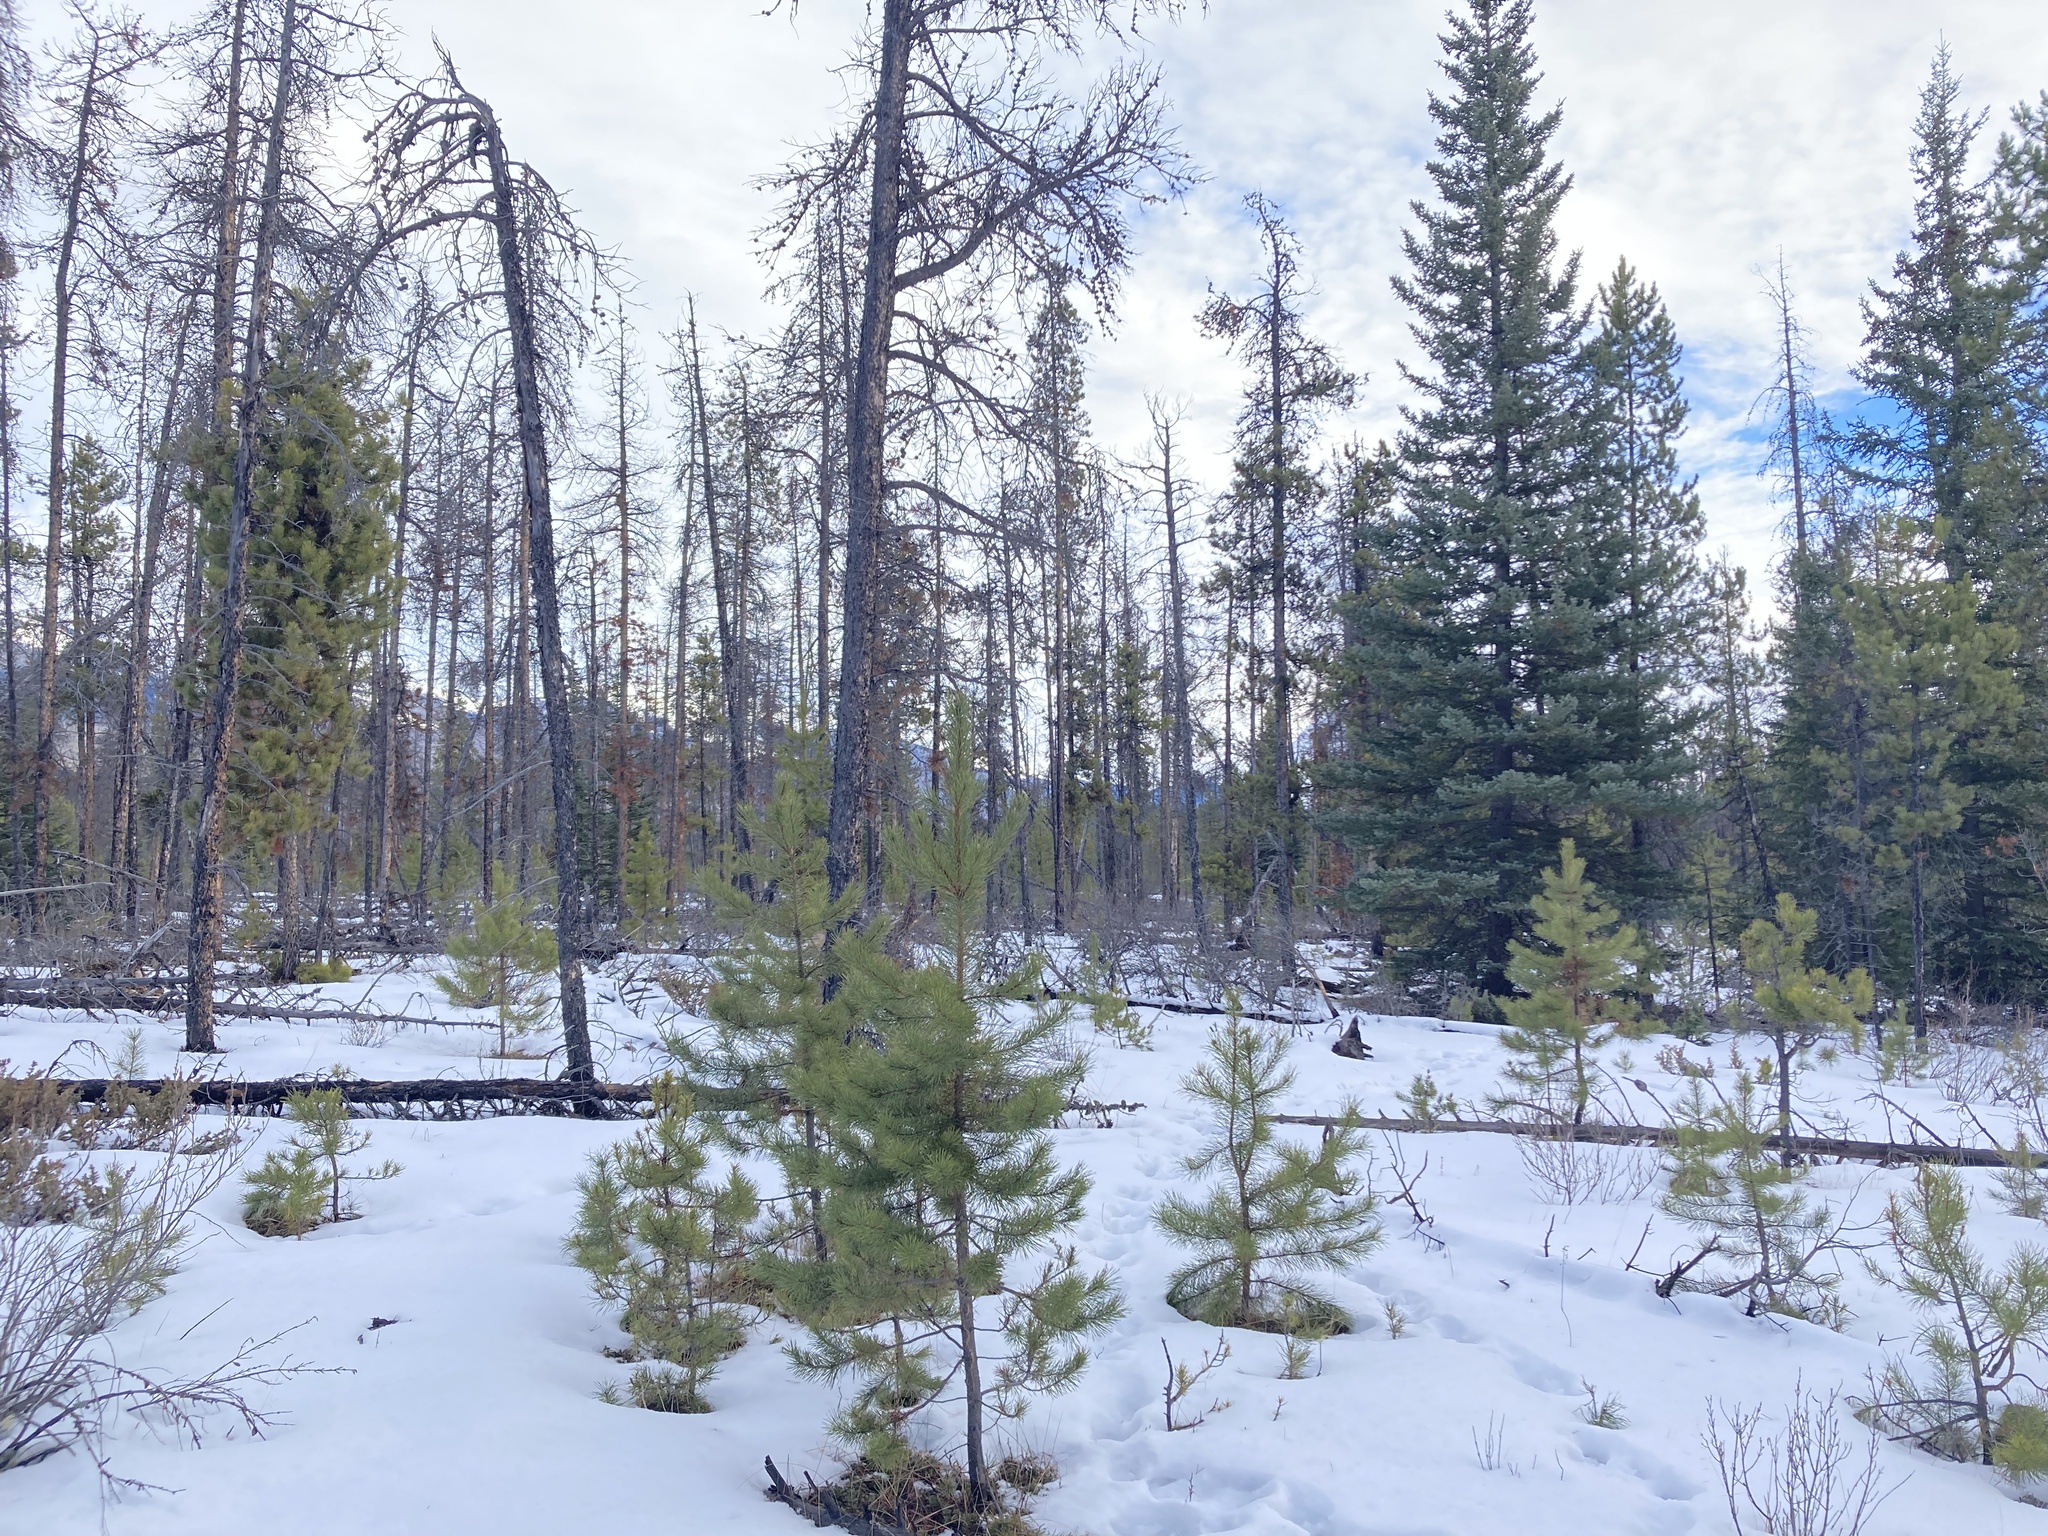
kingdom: Plantae
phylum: Tracheophyta
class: Pinopsida
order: Pinales
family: Pinaceae
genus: Pinus
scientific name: Pinus contorta
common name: Lodgepole pine
